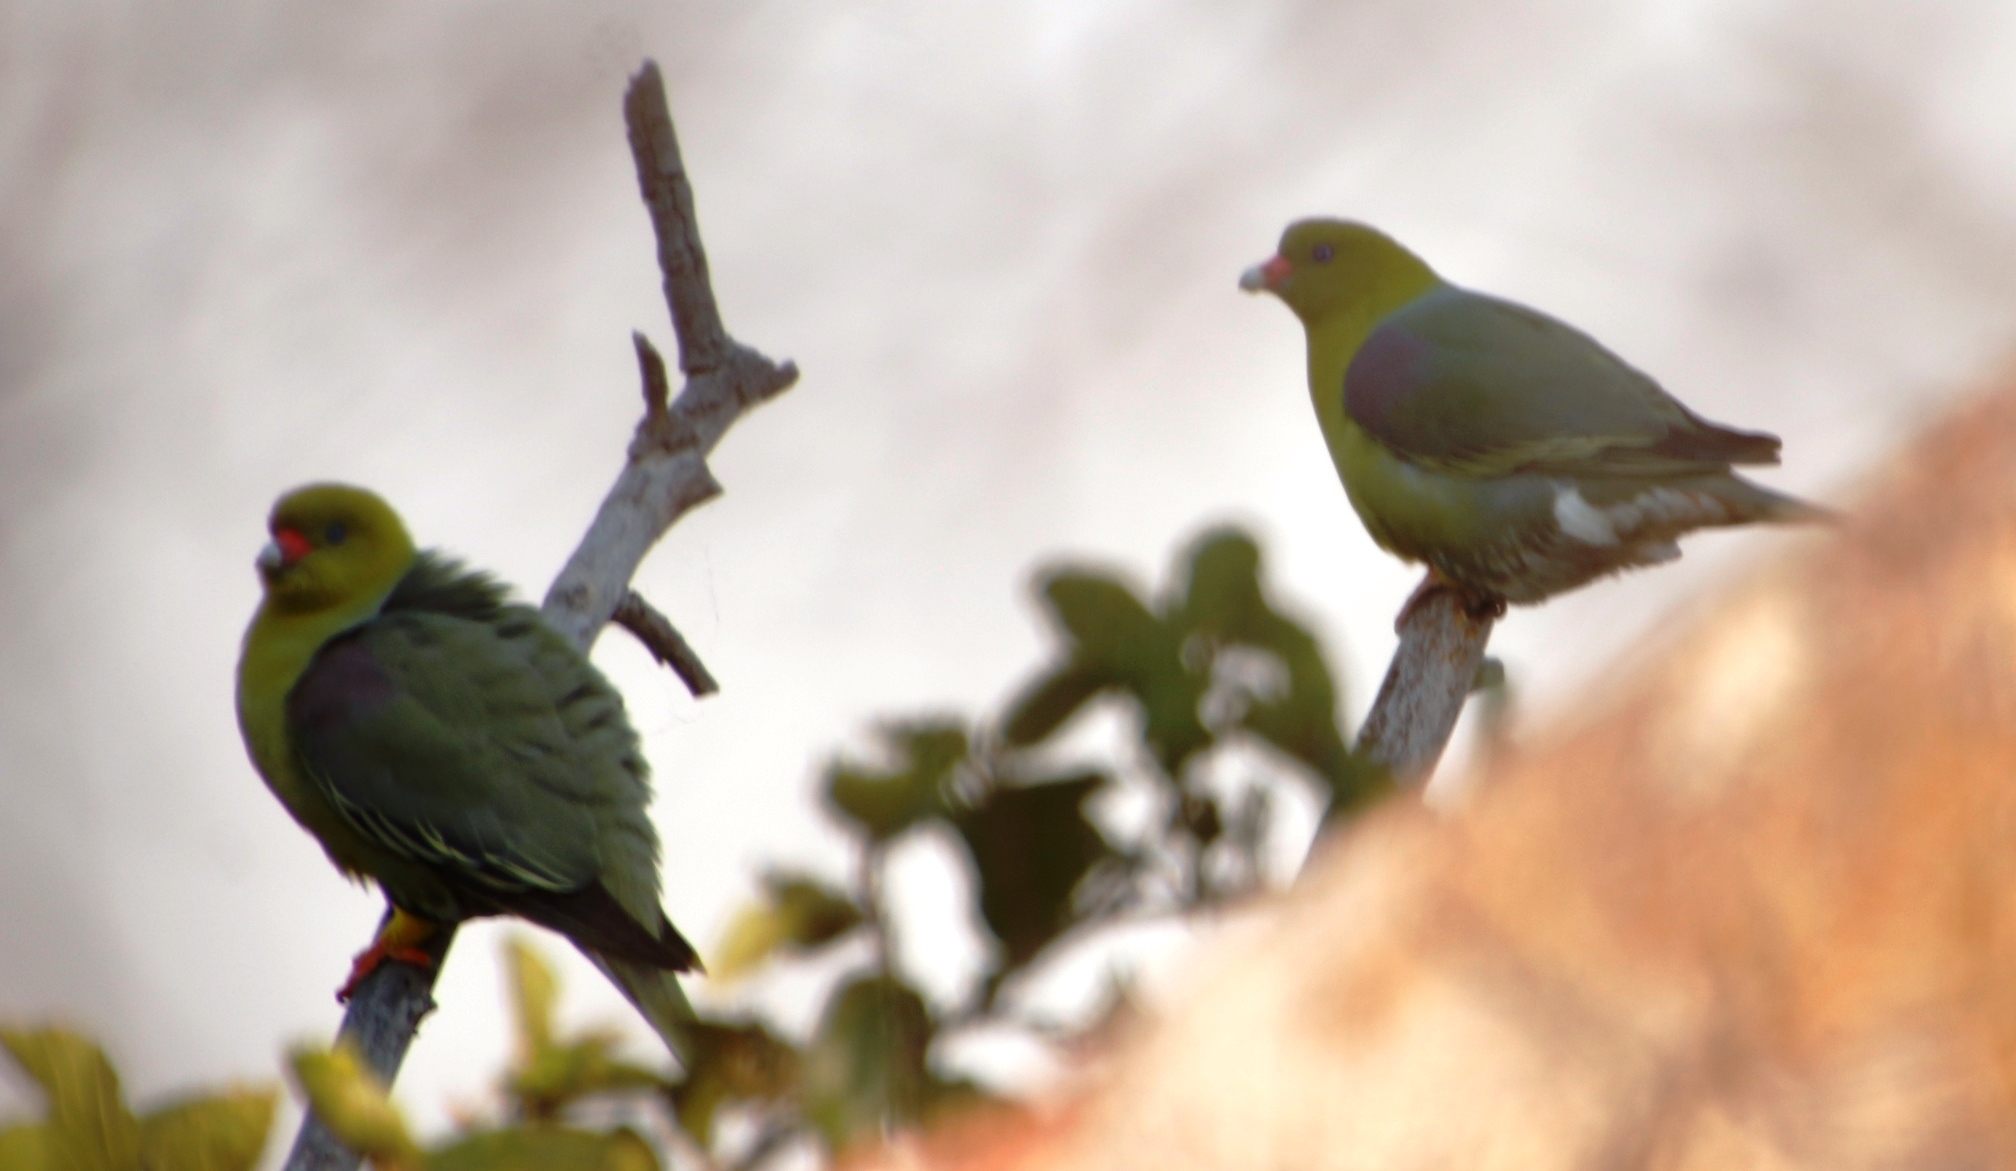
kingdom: Animalia
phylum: Chordata
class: Aves
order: Columbiformes
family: Columbidae
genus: Treron
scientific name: Treron calvus
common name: African green pigeon
